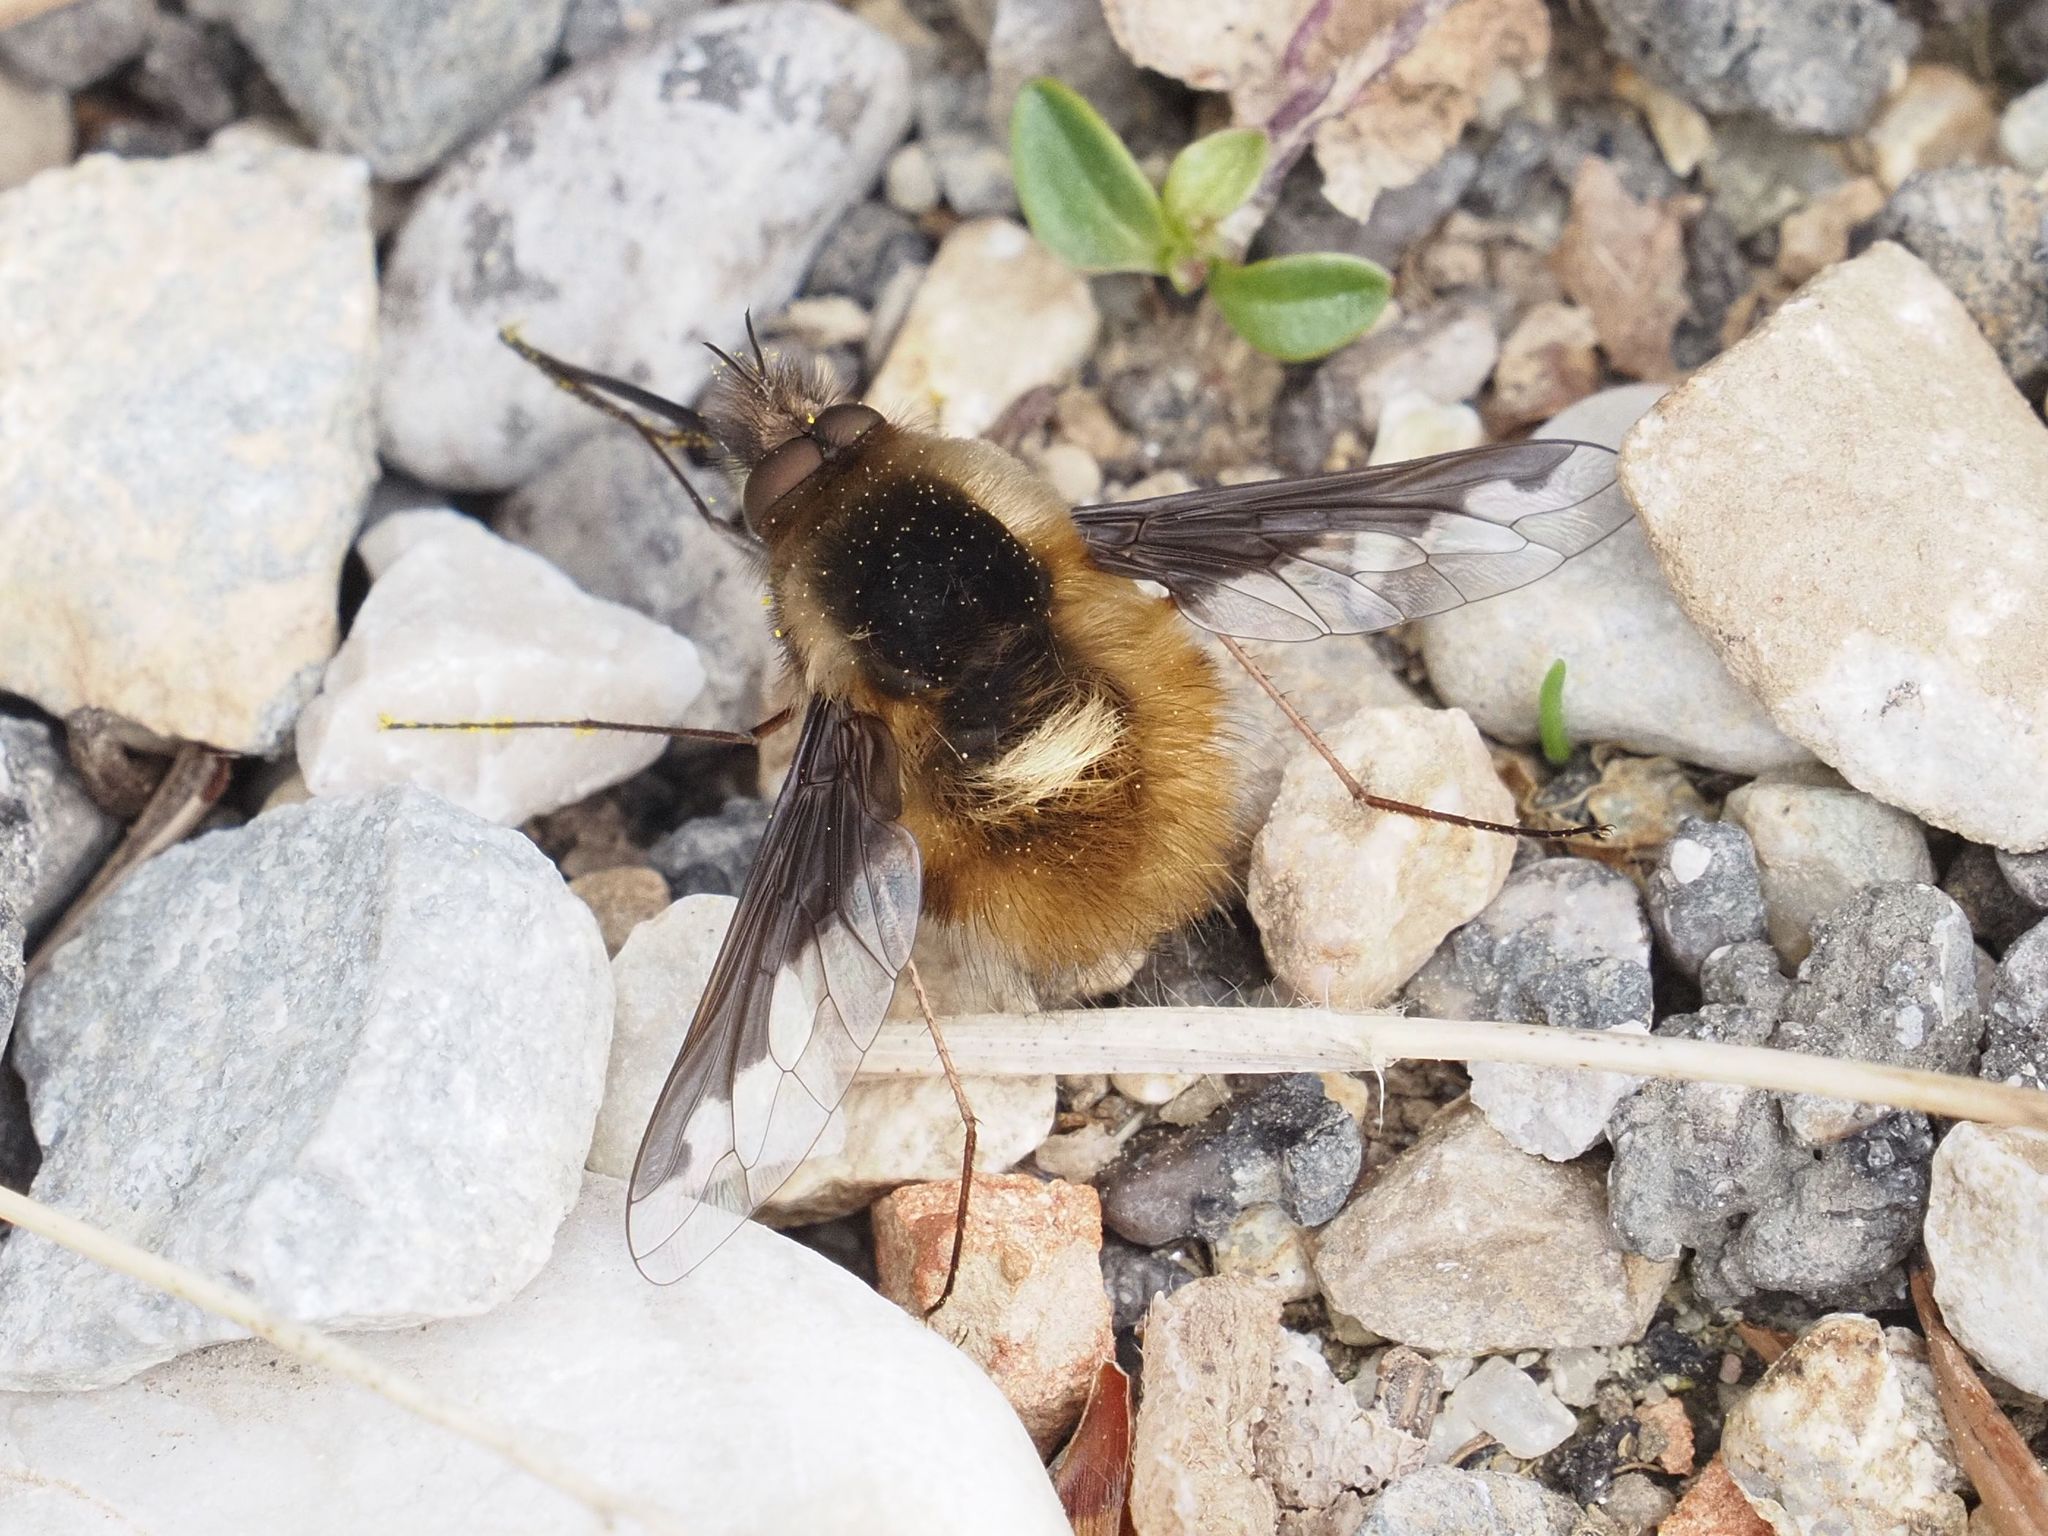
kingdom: Animalia
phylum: Arthropoda
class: Insecta
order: Diptera
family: Bombyliidae
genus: Bombylius
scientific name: Bombylius major
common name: Bee fly
